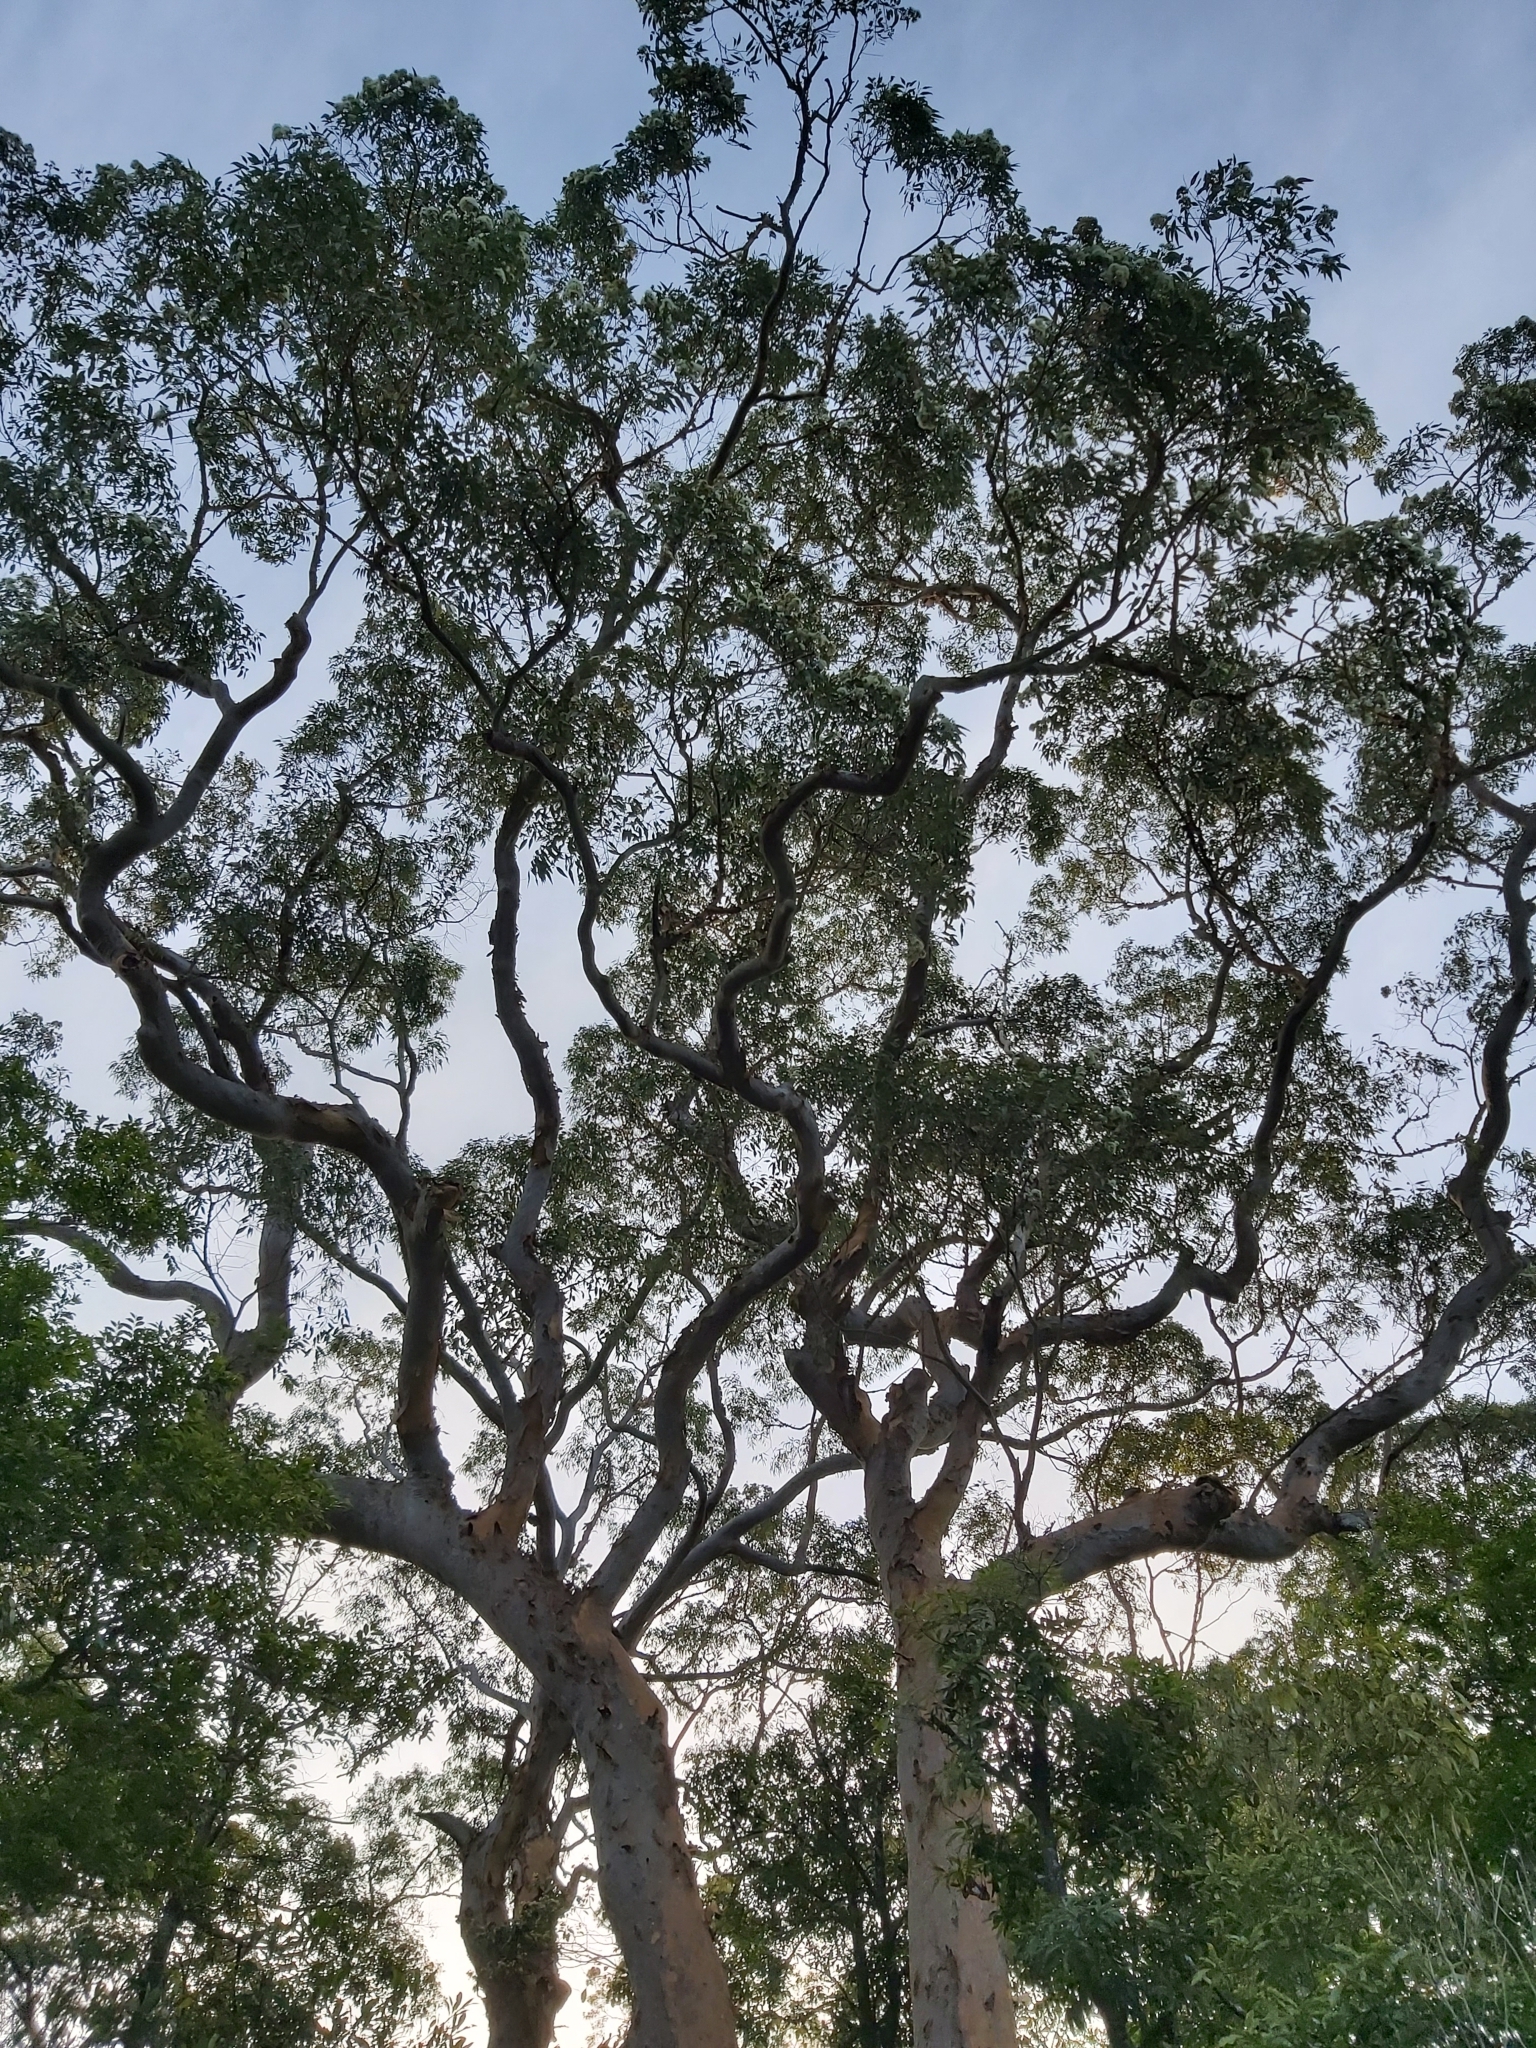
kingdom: Plantae
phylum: Tracheophyta
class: Magnoliopsida
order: Myrtales
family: Myrtaceae
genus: Angophora
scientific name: Angophora costata
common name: Gum myrtle
